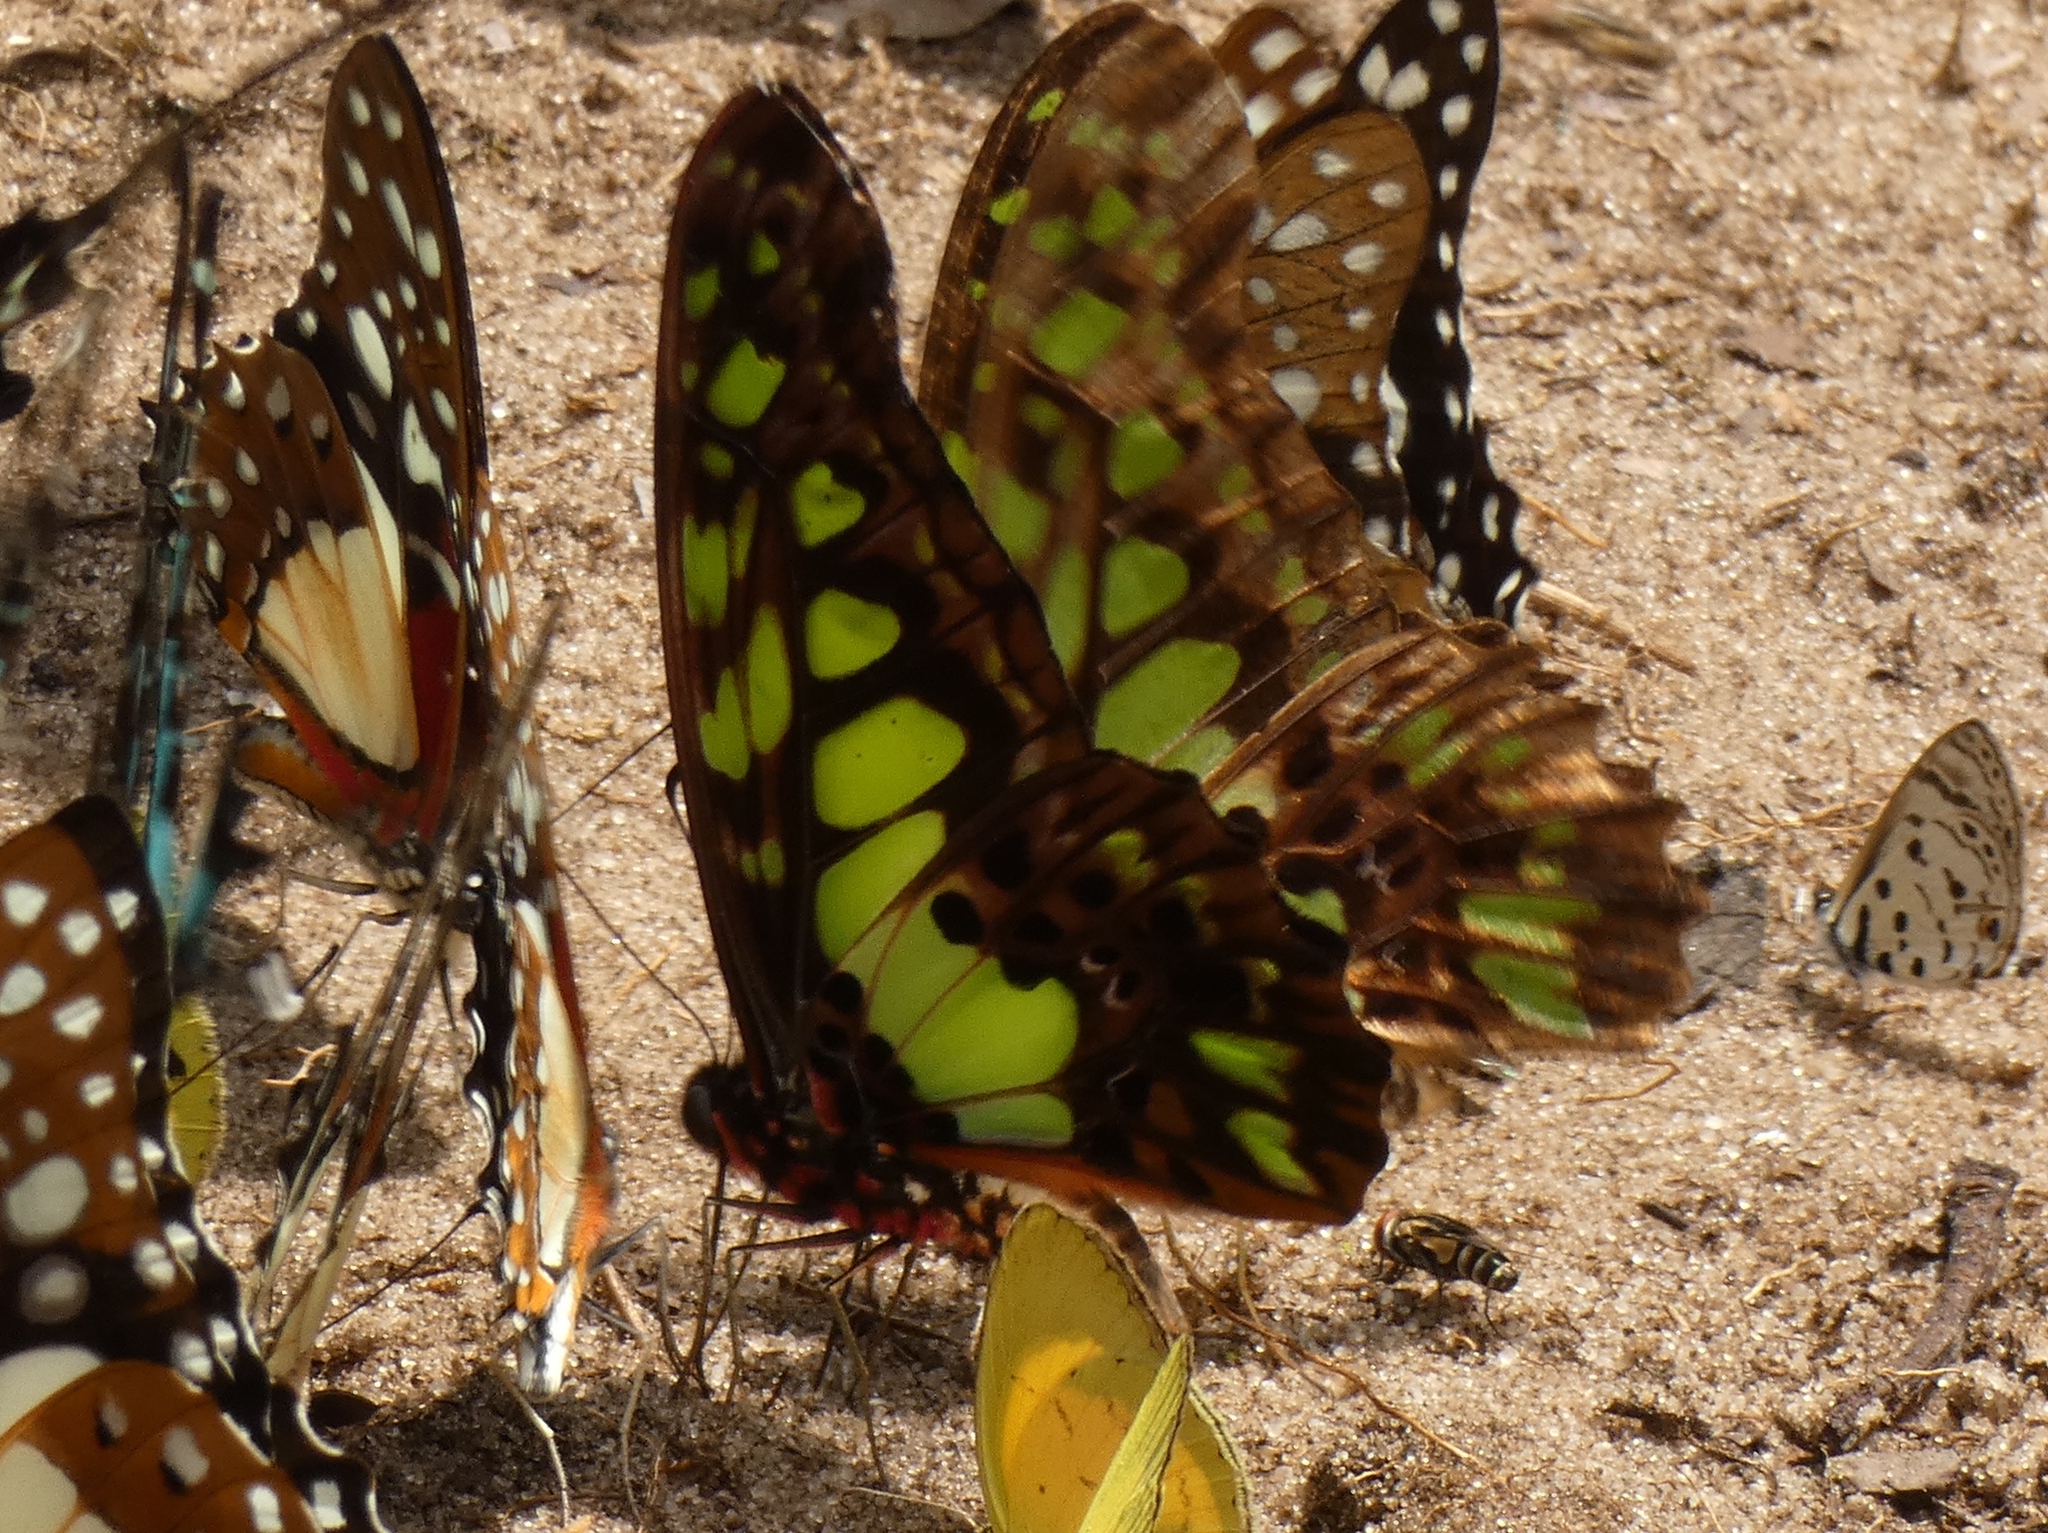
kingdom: Animalia
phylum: Arthropoda
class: Insecta
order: Lepidoptera
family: Papilionidae
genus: Graphium
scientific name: Graphium tynderaeus
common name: Electric green swordtail
